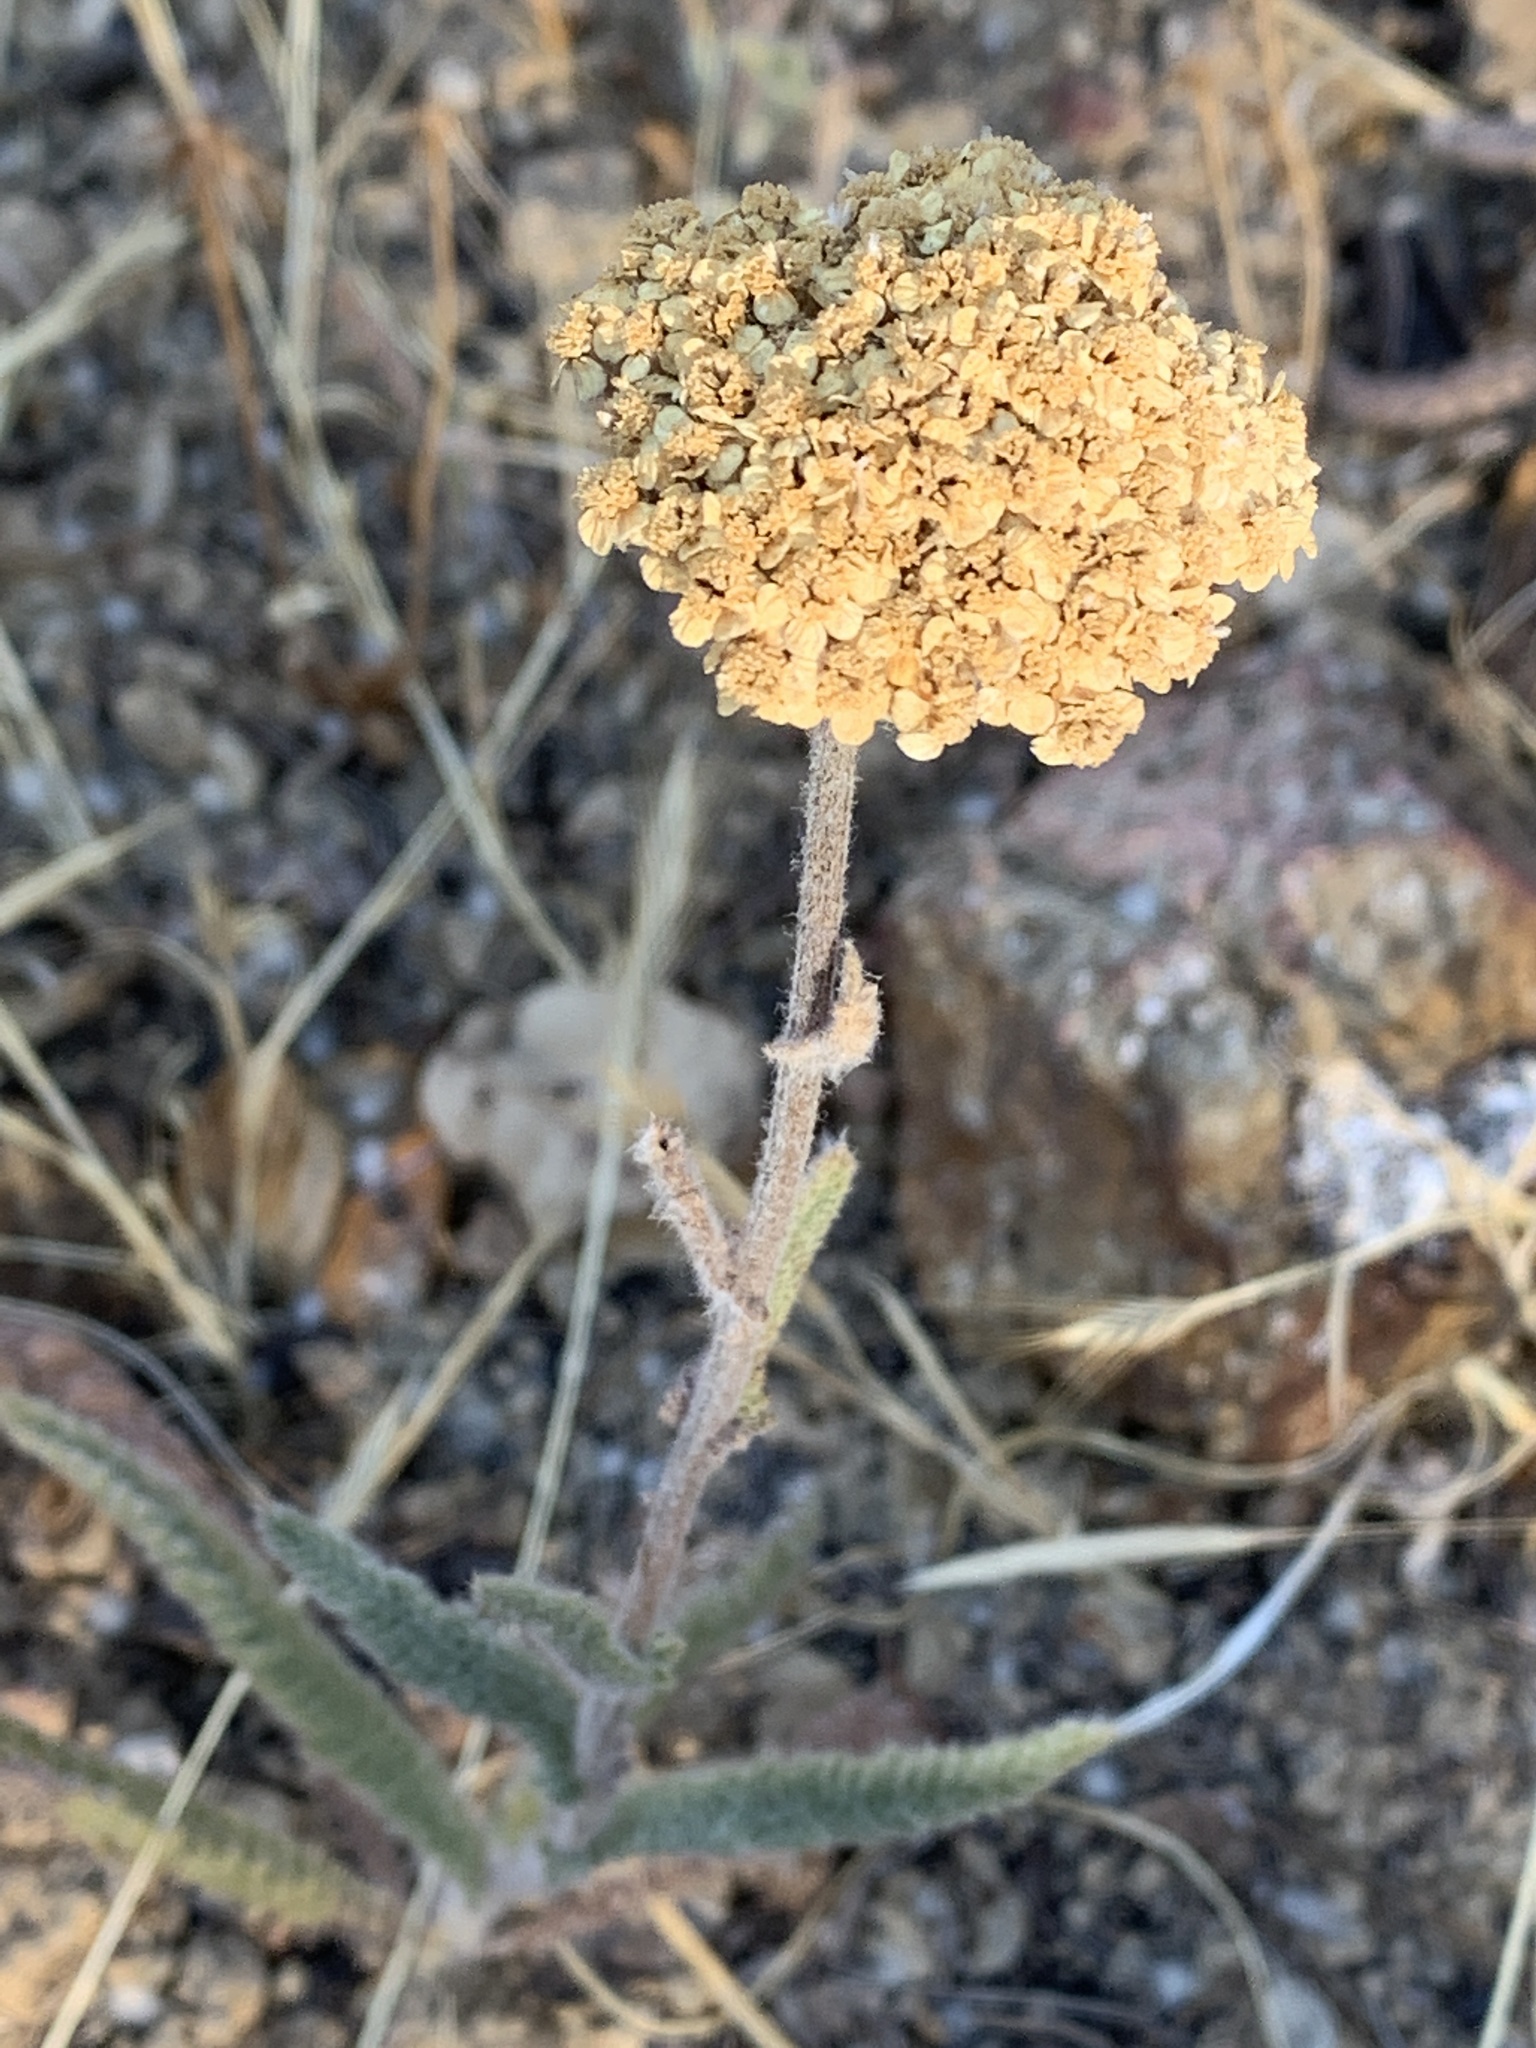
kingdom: Plantae
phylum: Tracheophyta
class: Magnoliopsida
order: Asterales
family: Asteraceae
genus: Achillea
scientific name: Achillea millefolium
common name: Yarrow
